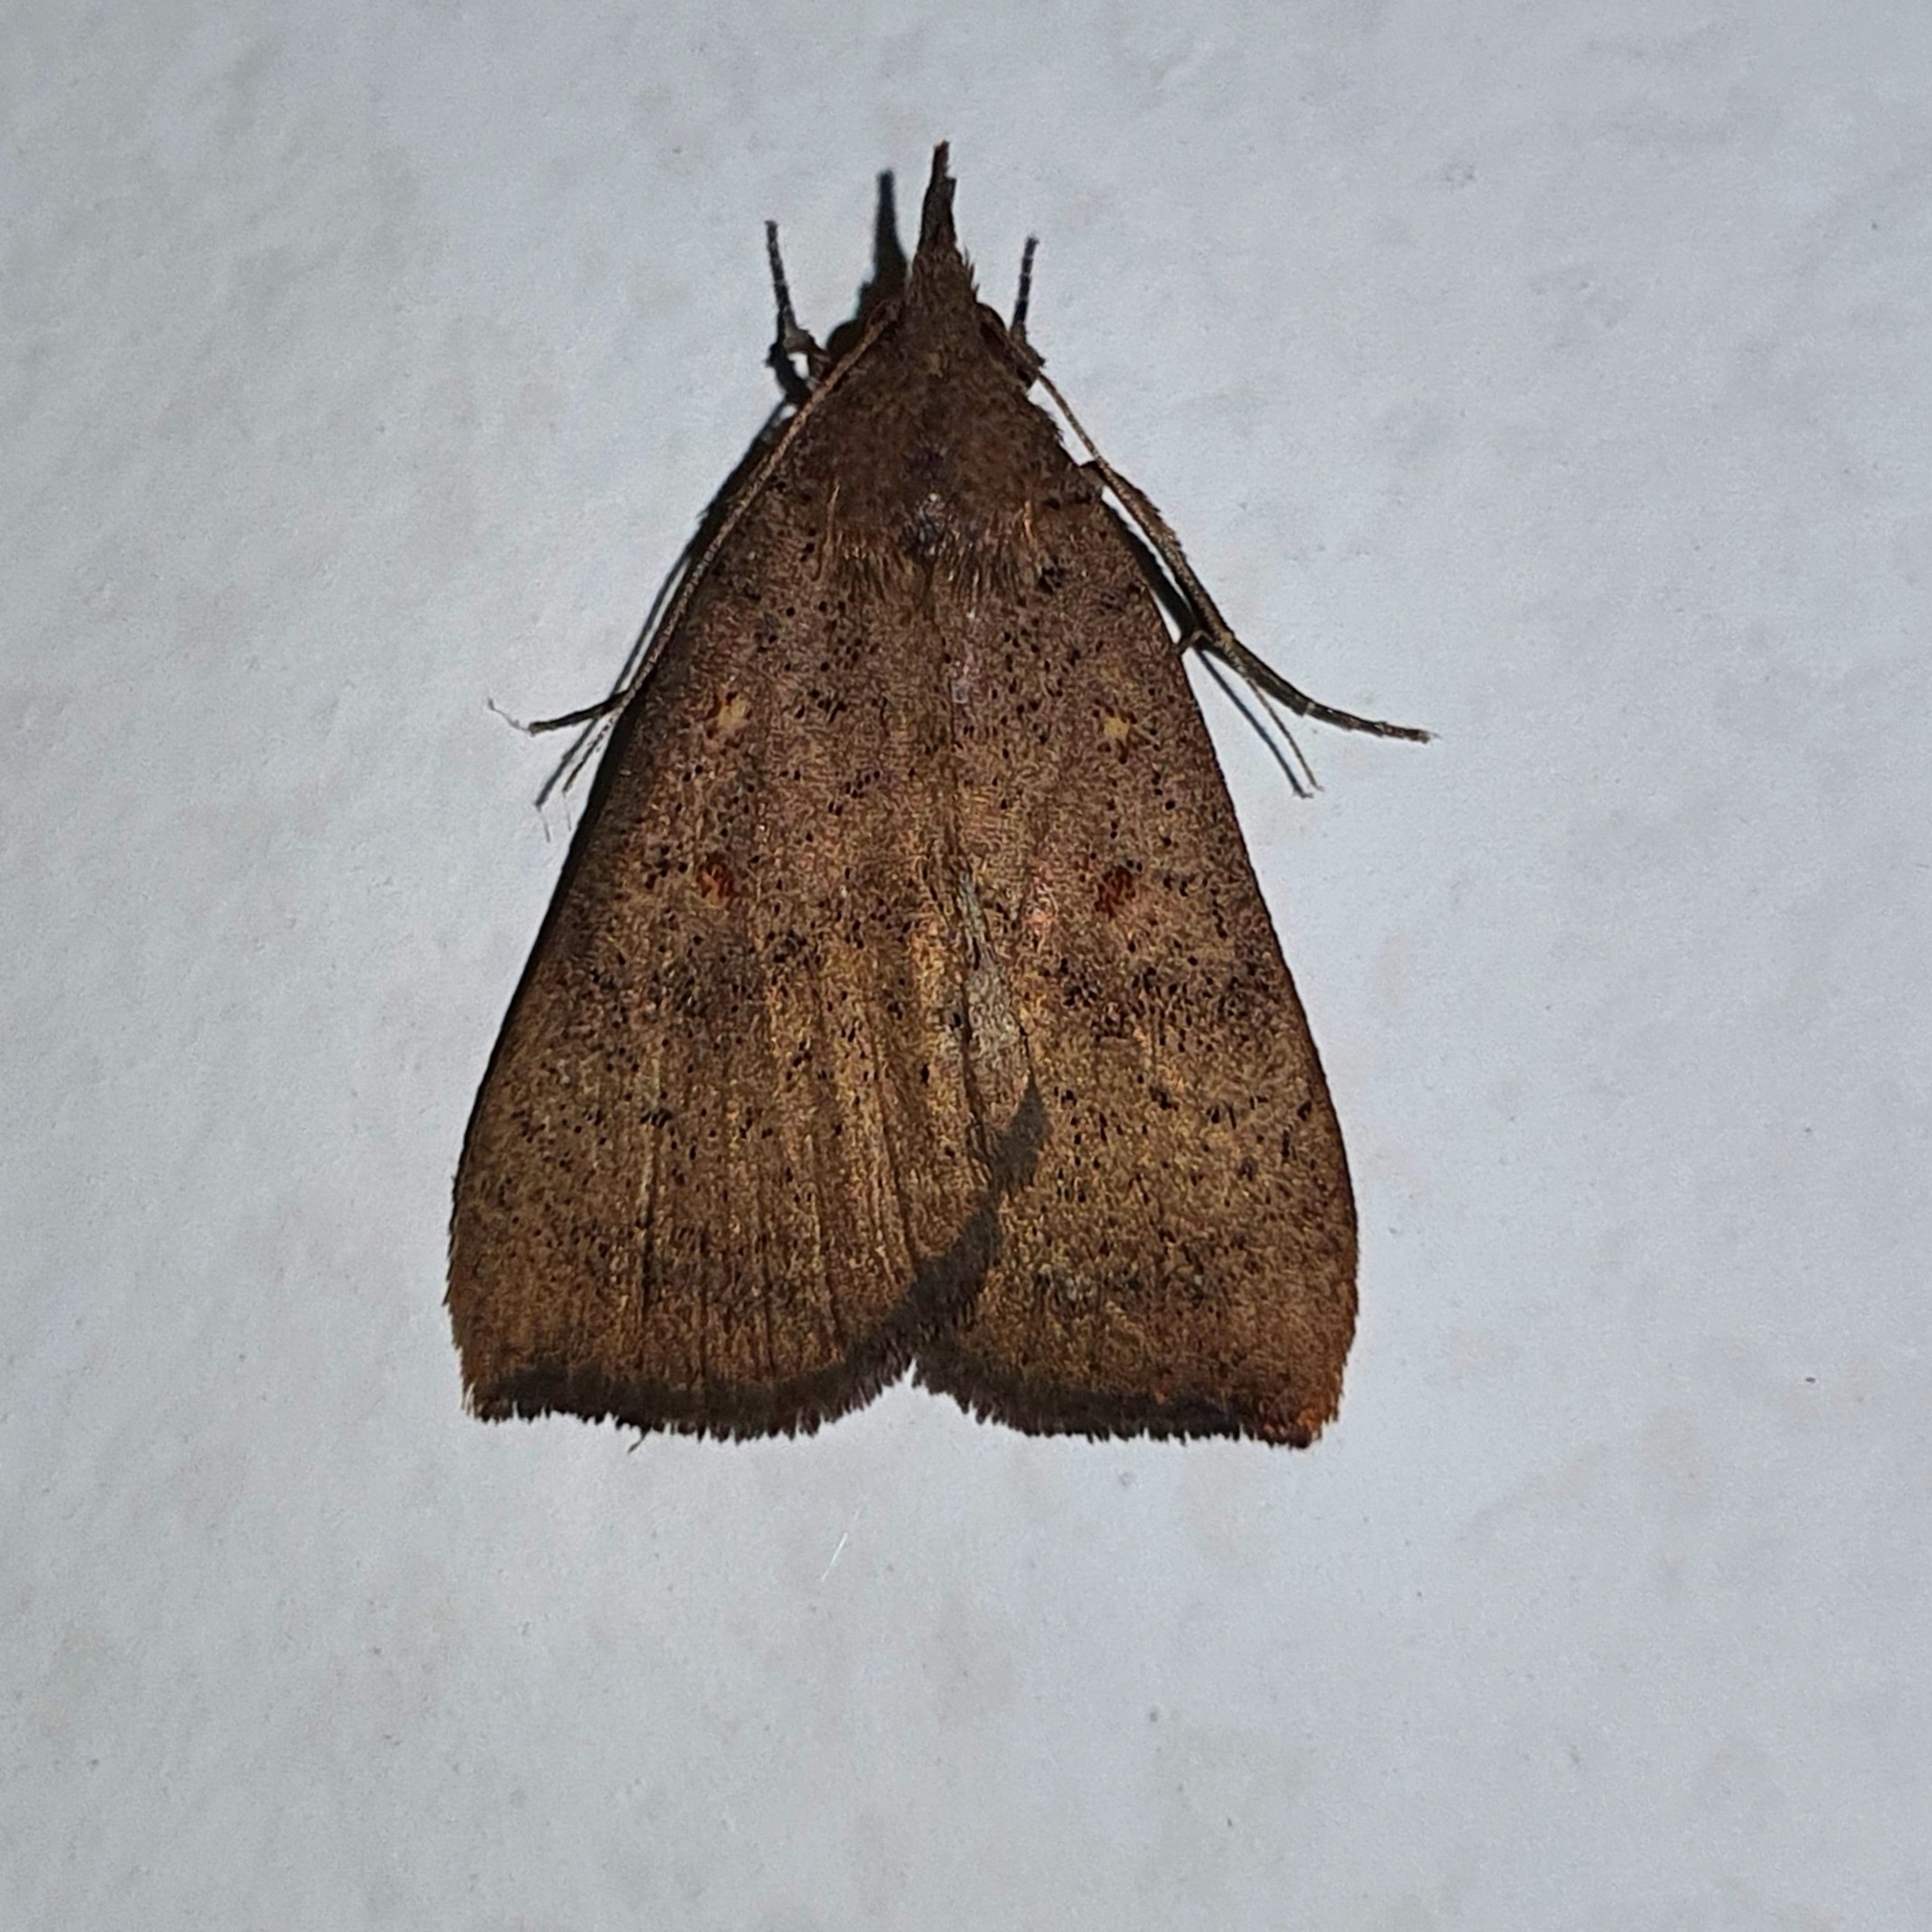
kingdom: Animalia
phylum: Arthropoda
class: Insecta
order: Lepidoptera
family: Erebidae
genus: Rhapsa
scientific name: Rhapsa suscitatalis
